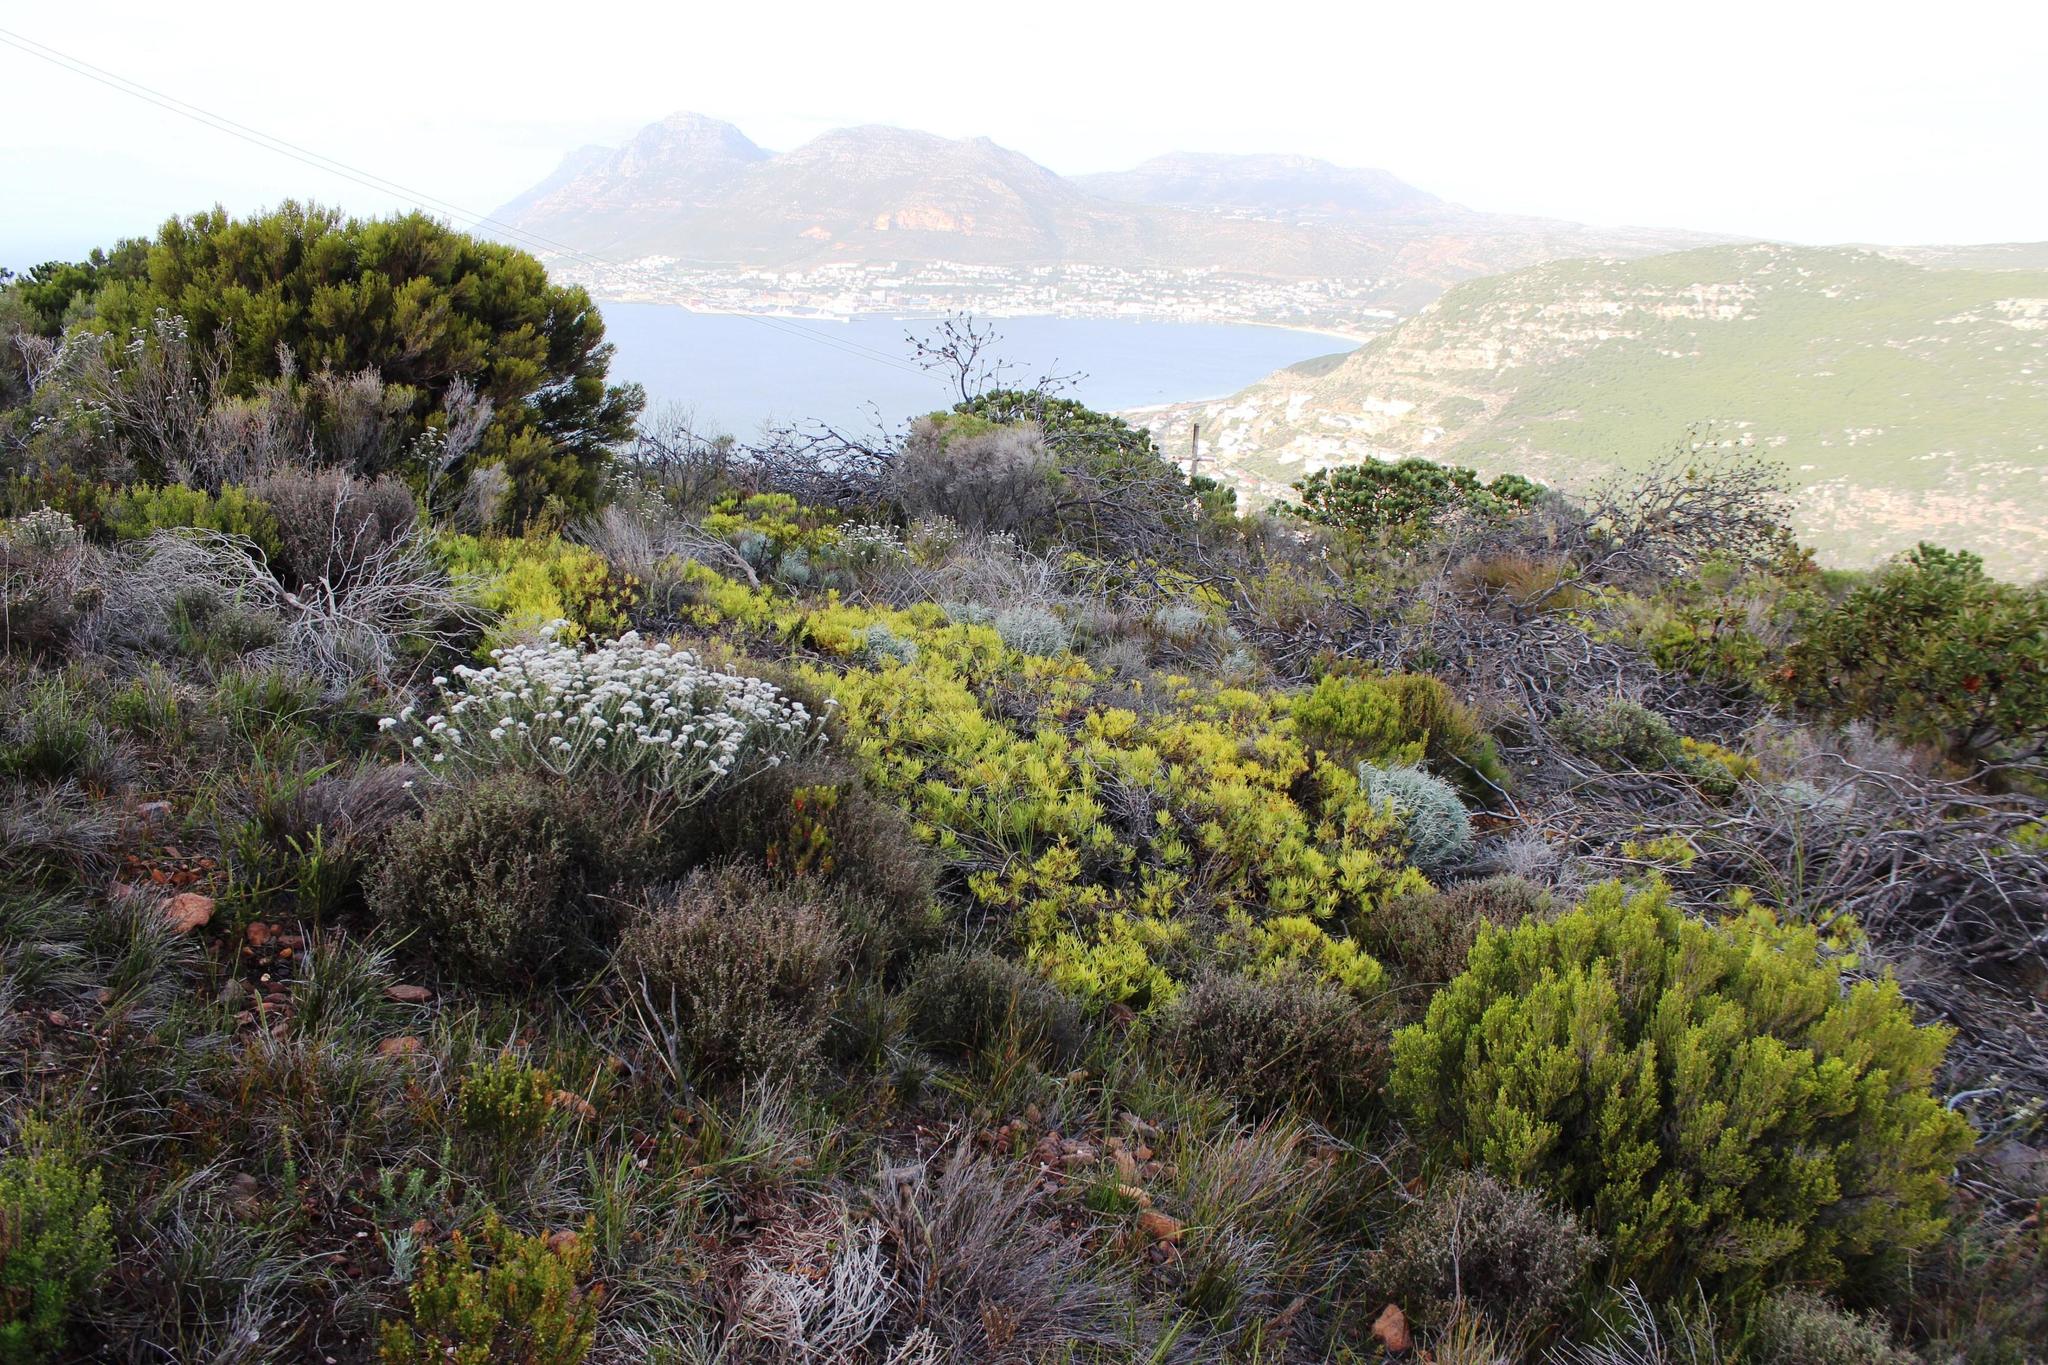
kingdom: Plantae
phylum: Tracheophyta
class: Magnoliopsida
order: Proteales
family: Proteaceae
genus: Leucadendron
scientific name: Leucadendron salignum
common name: Common sunshine conebush
